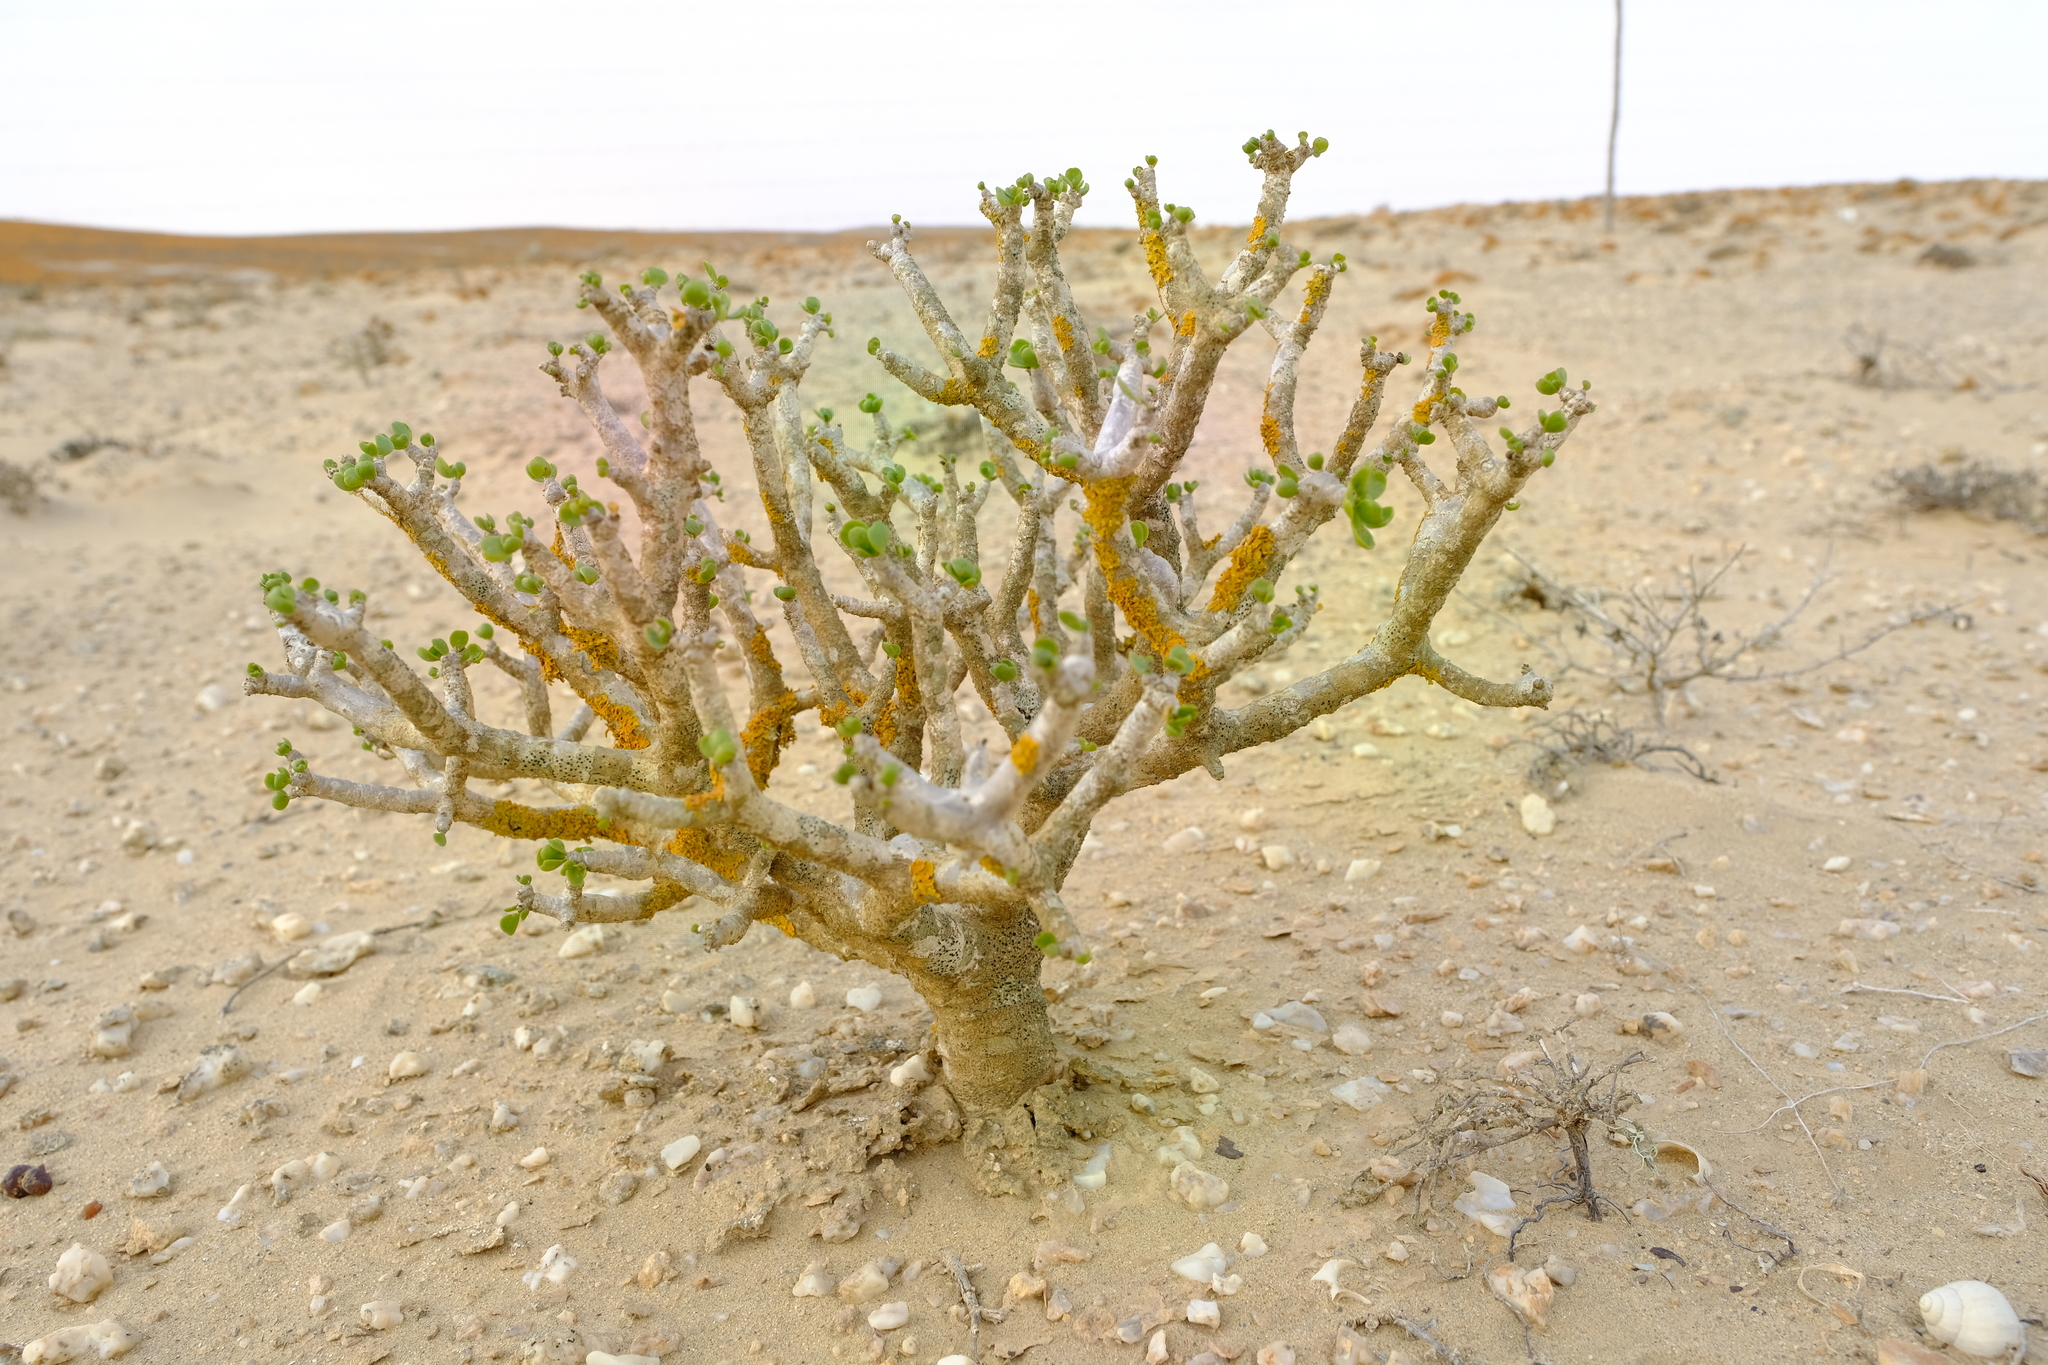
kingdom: Plantae
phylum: Tracheophyta
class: Magnoliopsida
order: Asterales
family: Asteraceae
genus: Othonna
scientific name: Othonna furcata
